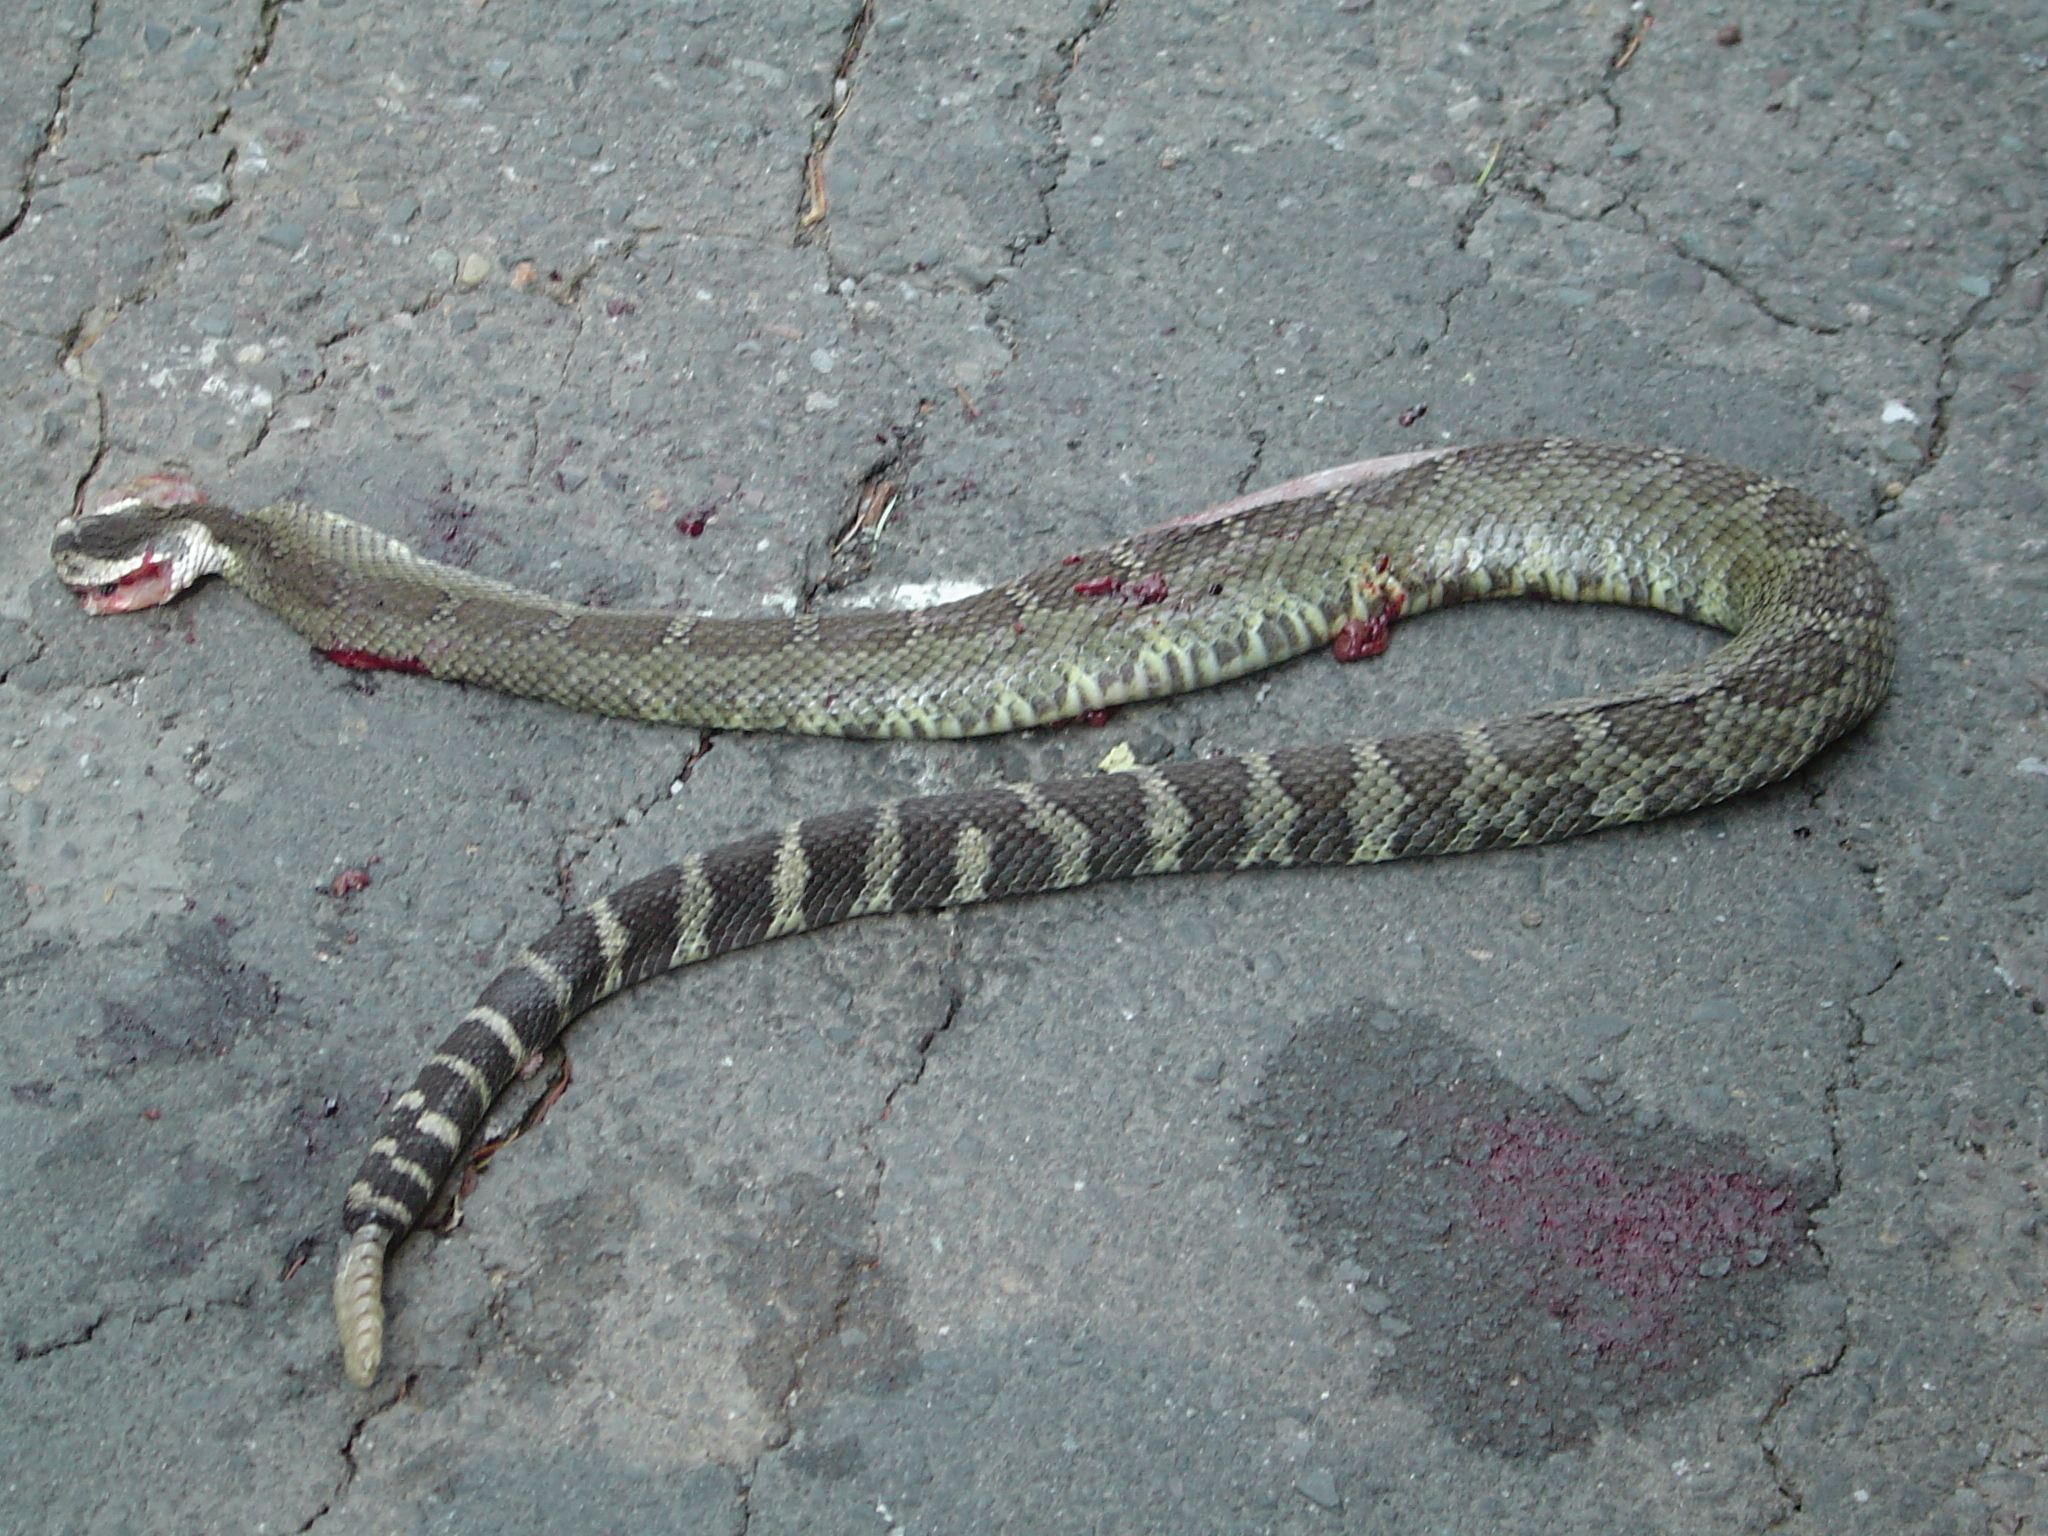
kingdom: Animalia
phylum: Chordata
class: Squamata
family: Viperidae
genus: Crotalus
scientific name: Crotalus oreganus
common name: Abyssus
